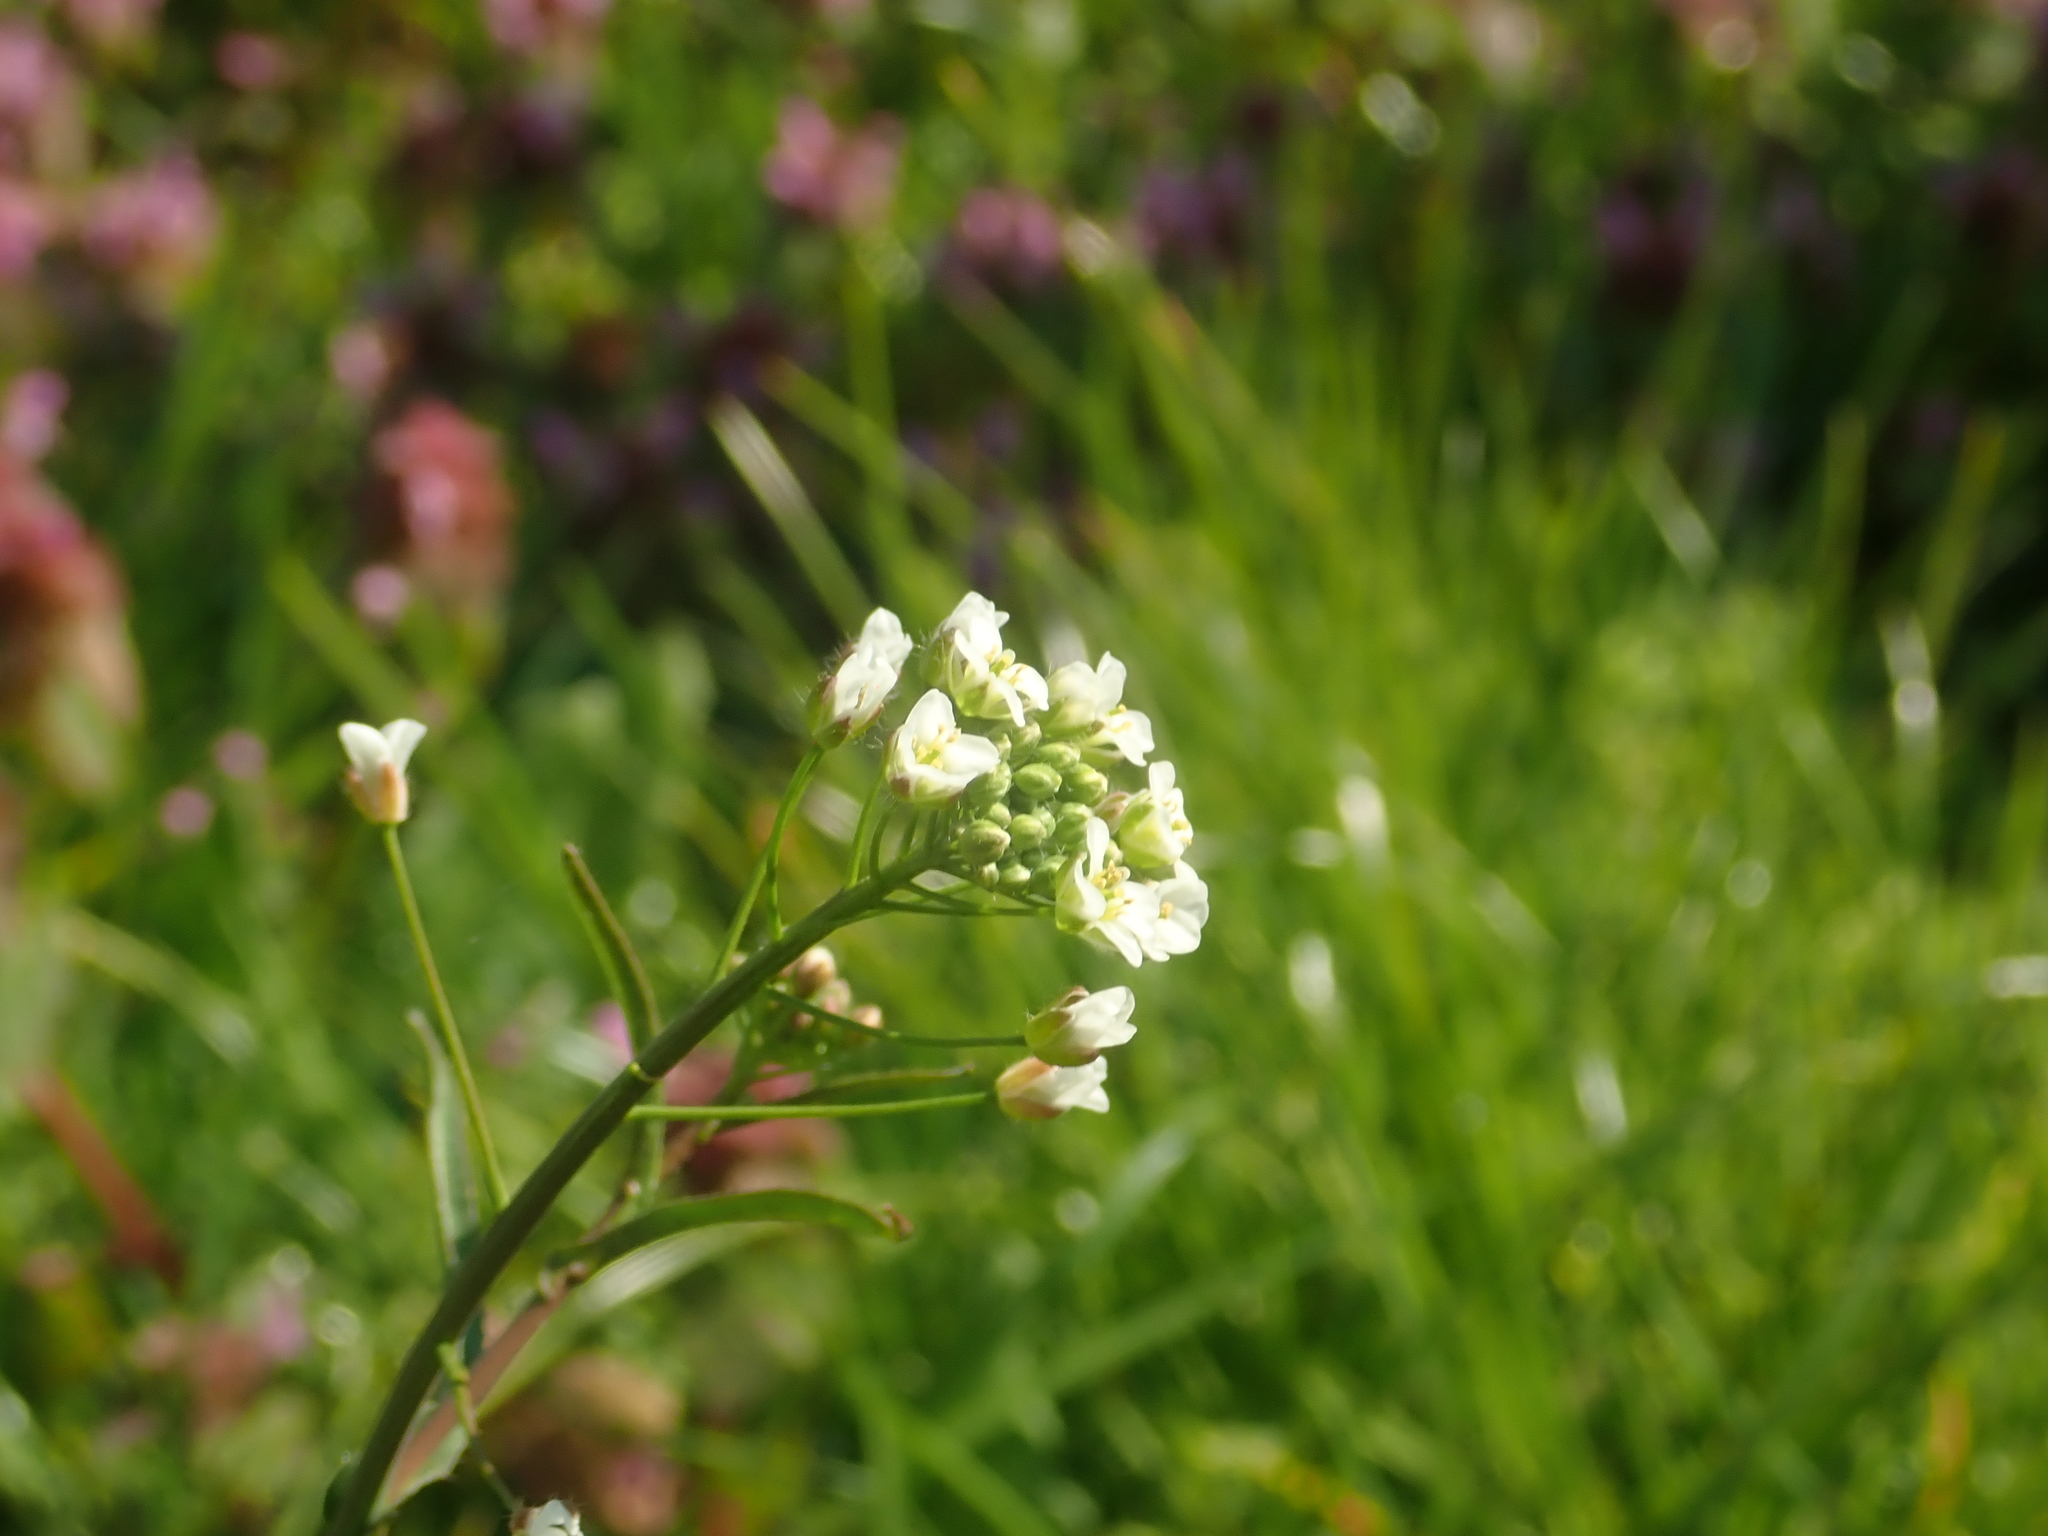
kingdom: Plantae
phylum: Tracheophyta
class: Magnoliopsida
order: Brassicales
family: Brassicaceae
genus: Capsella
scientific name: Capsella bursa-pastoris
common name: Shepherd's purse
